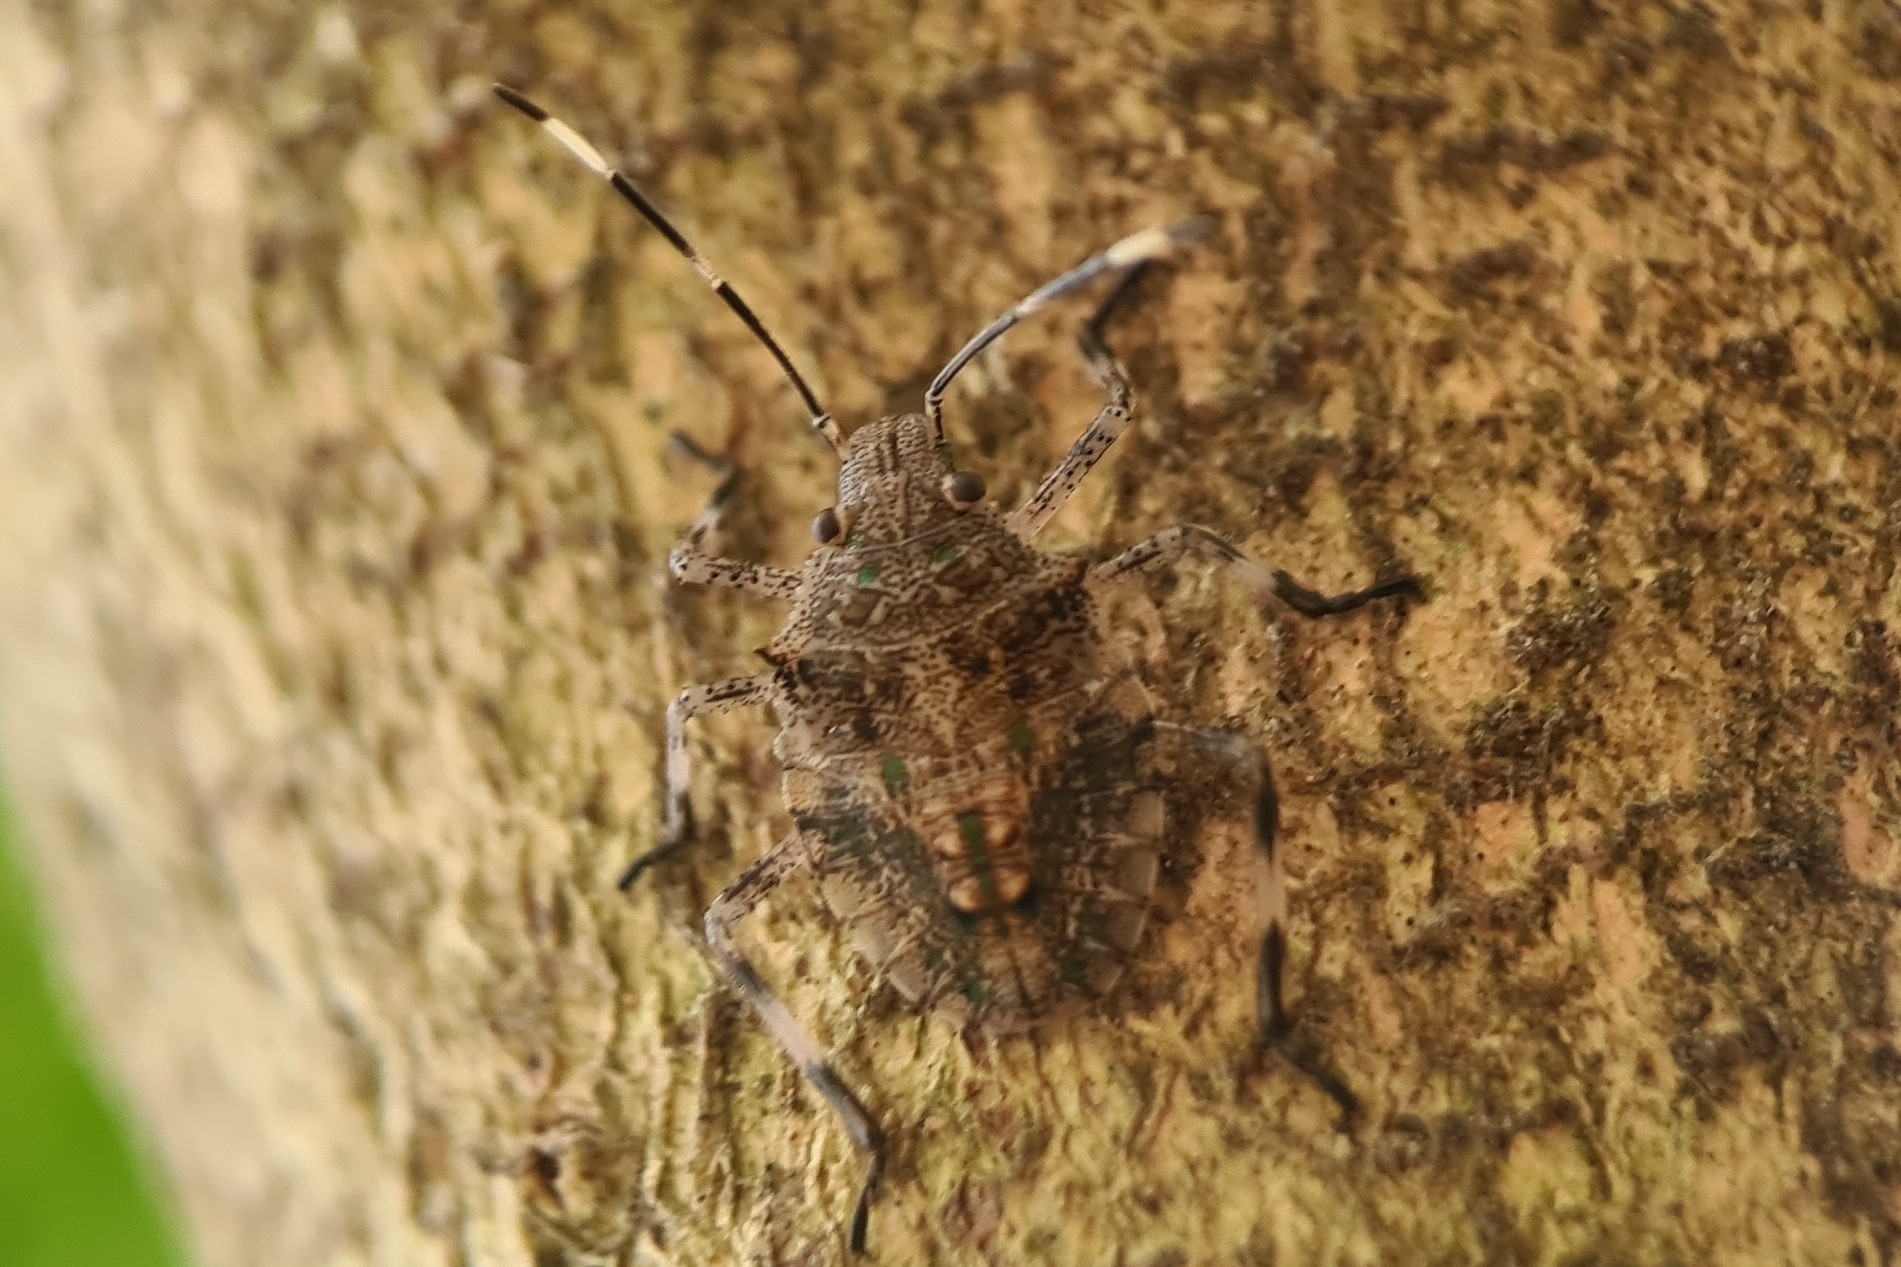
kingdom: Animalia
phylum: Arthropoda
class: Insecta
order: Hemiptera
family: Pentatomidae
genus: Bromocoris
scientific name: Bromocoris
